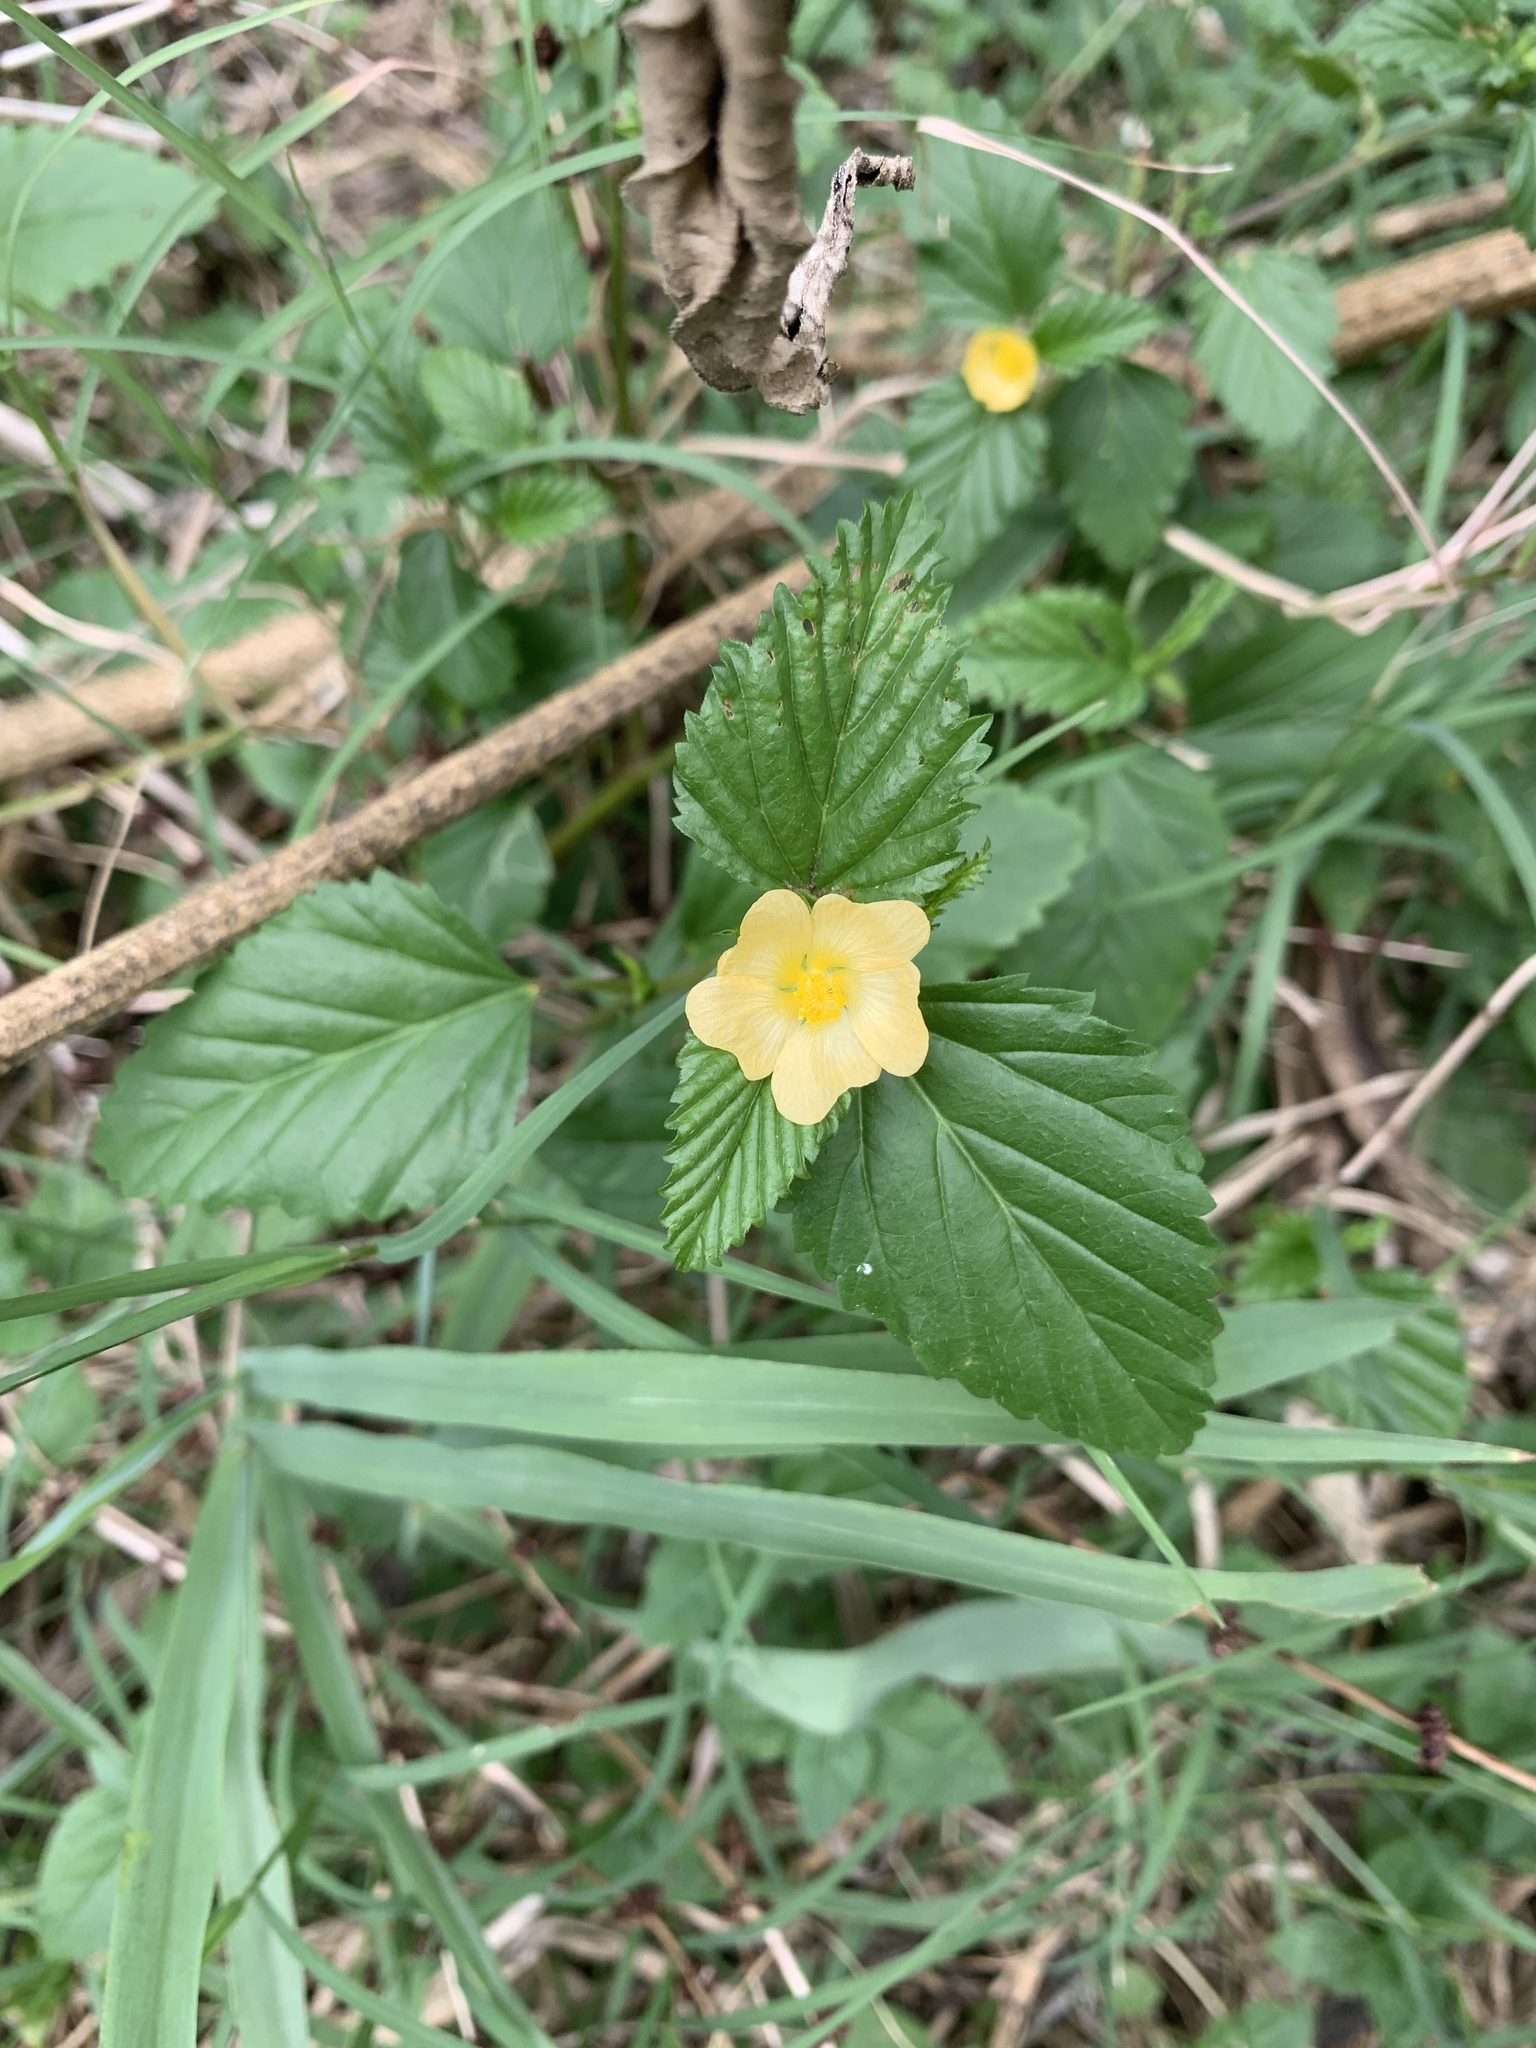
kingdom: Plantae
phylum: Tracheophyta
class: Magnoliopsida
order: Malvales
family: Malvaceae
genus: Malvastrum
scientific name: Malvastrum coromandelianum
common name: Threelobe false mallow
